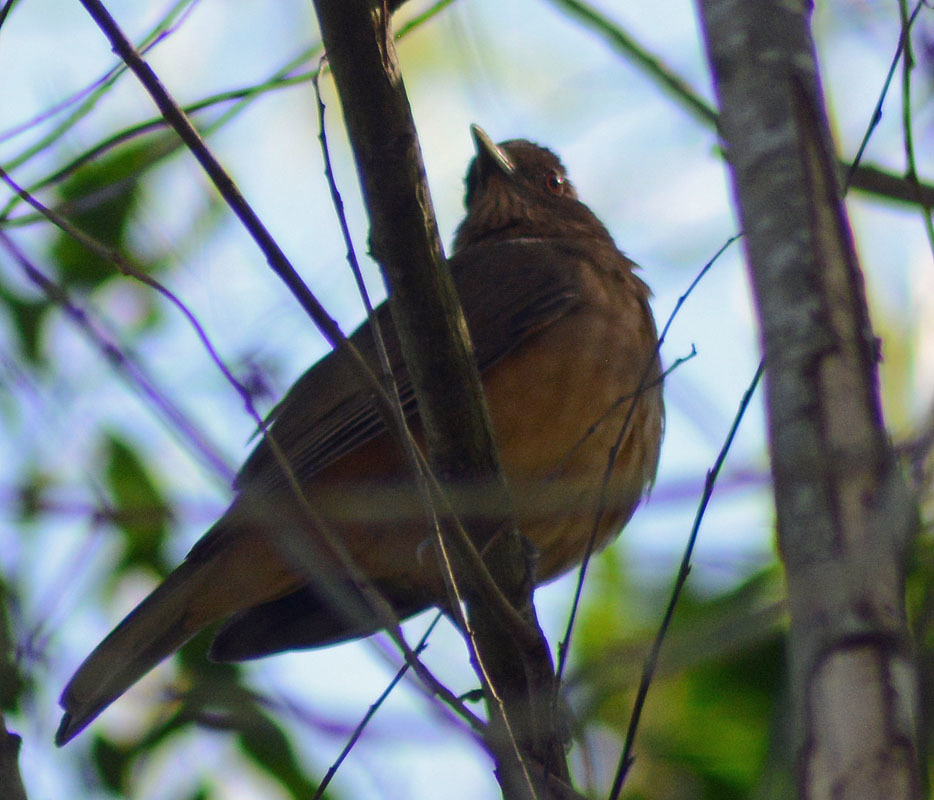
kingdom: Animalia
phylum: Chordata
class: Aves
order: Passeriformes
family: Turdidae
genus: Turdus
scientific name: Turdus grayi
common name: Clay-colored thrush
